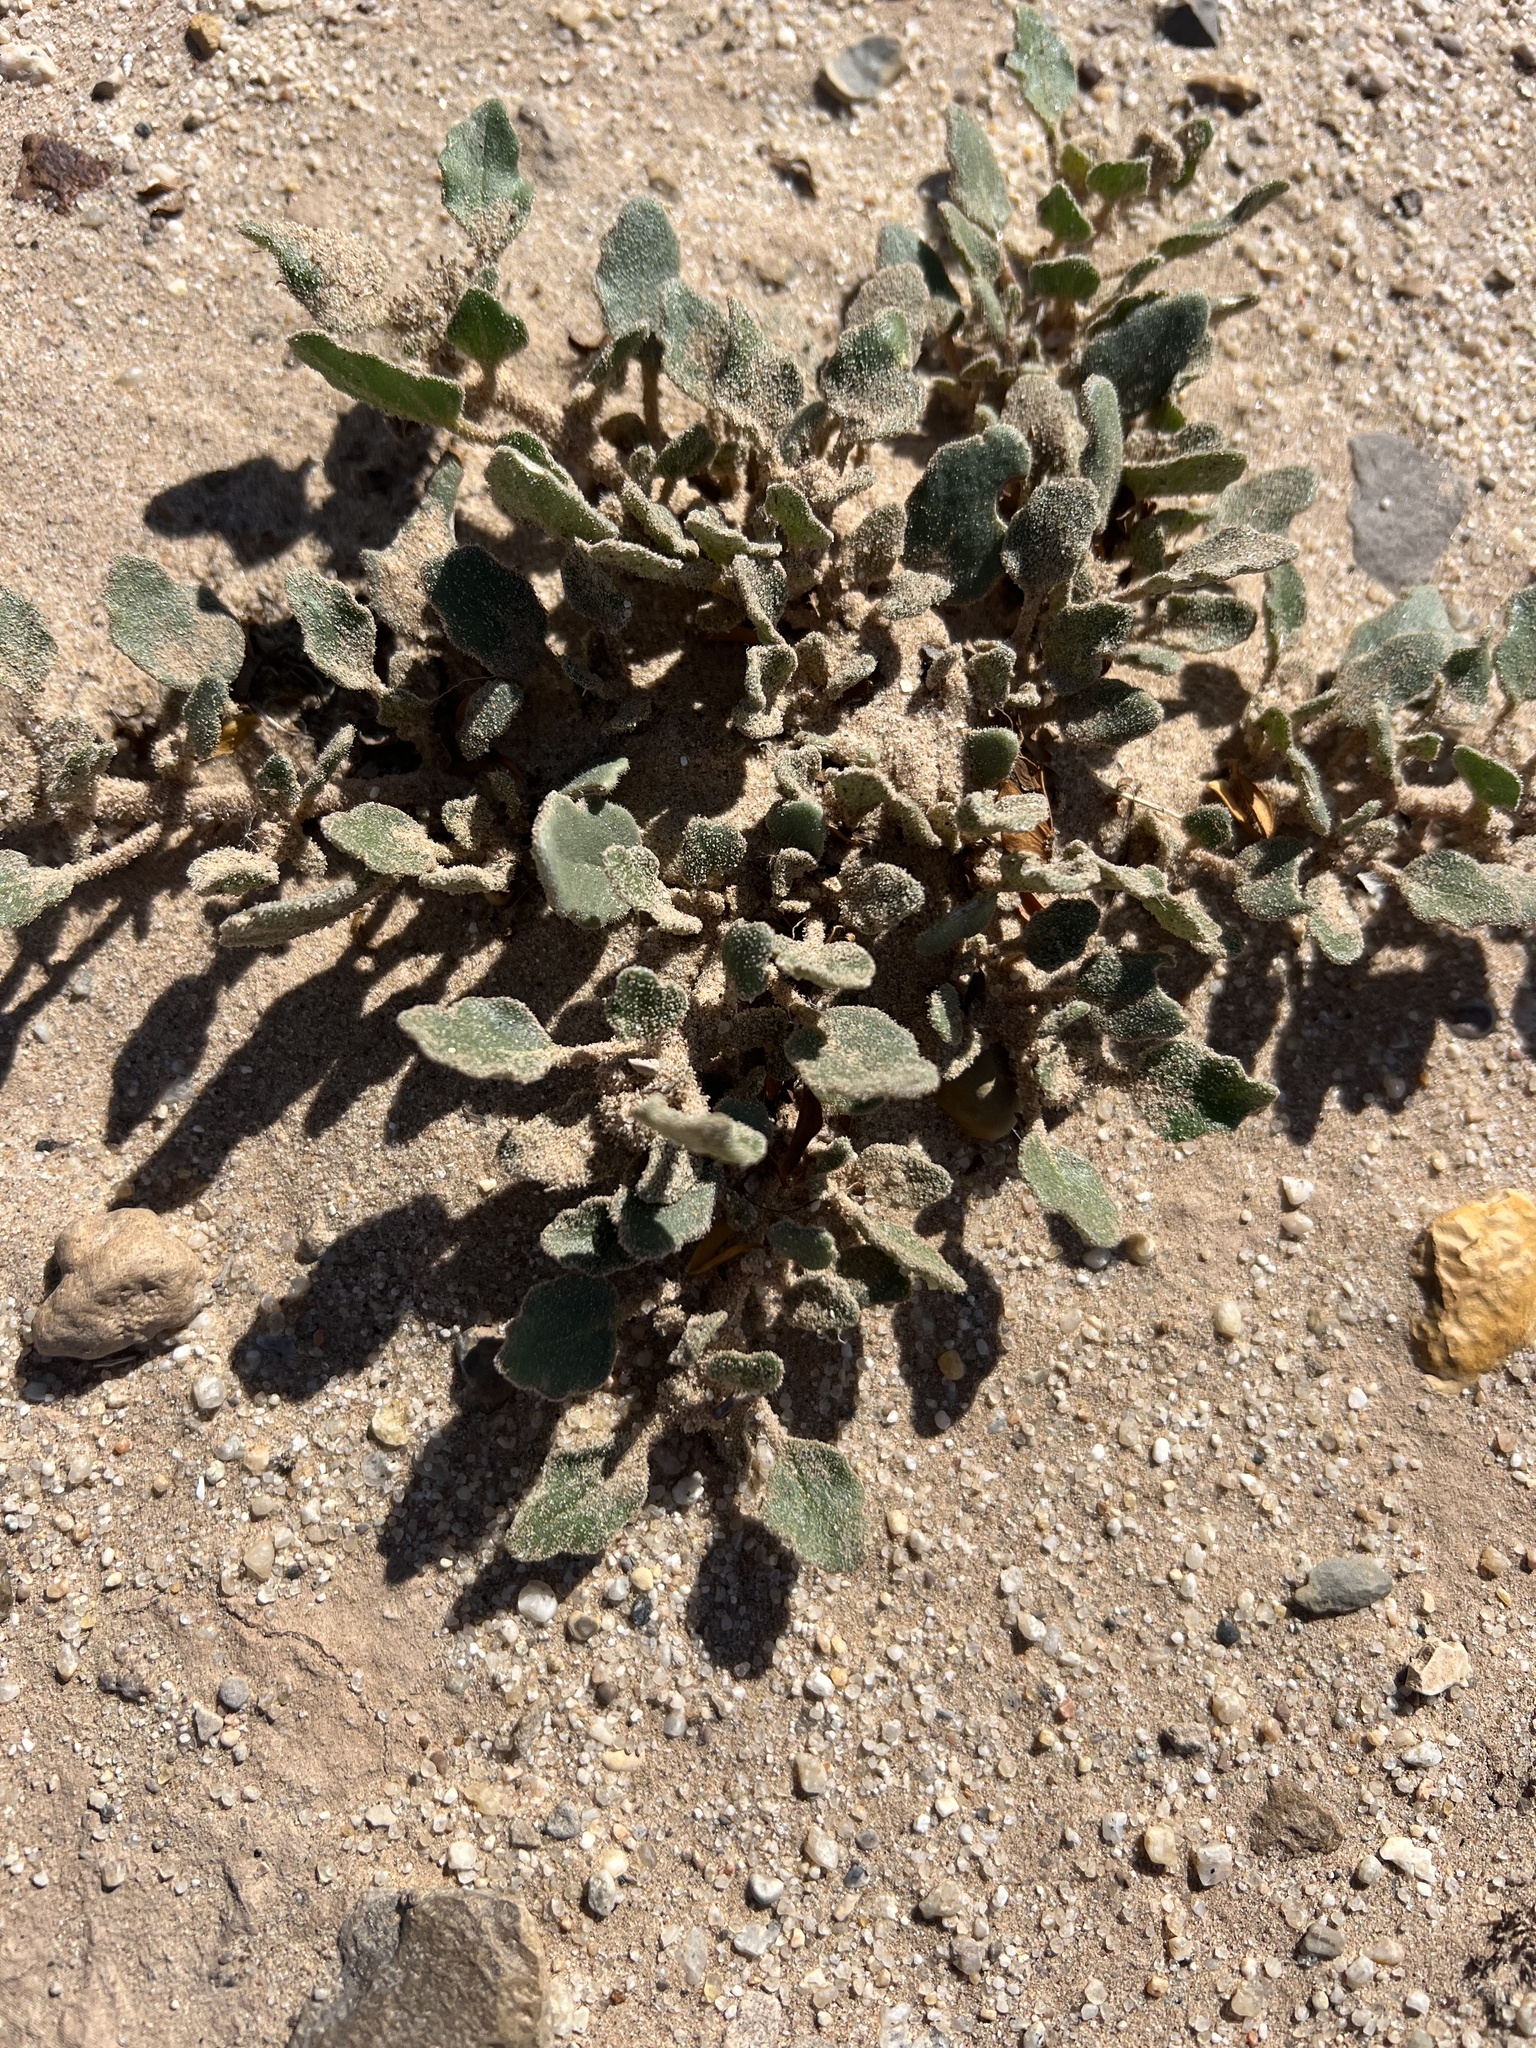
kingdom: Plantae
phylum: Tracheophyta
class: Magnoliopsida
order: Caryophyllales
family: Nyctaginaceae
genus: Abronia
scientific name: Abronia villosa
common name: Desert sand-verbena
